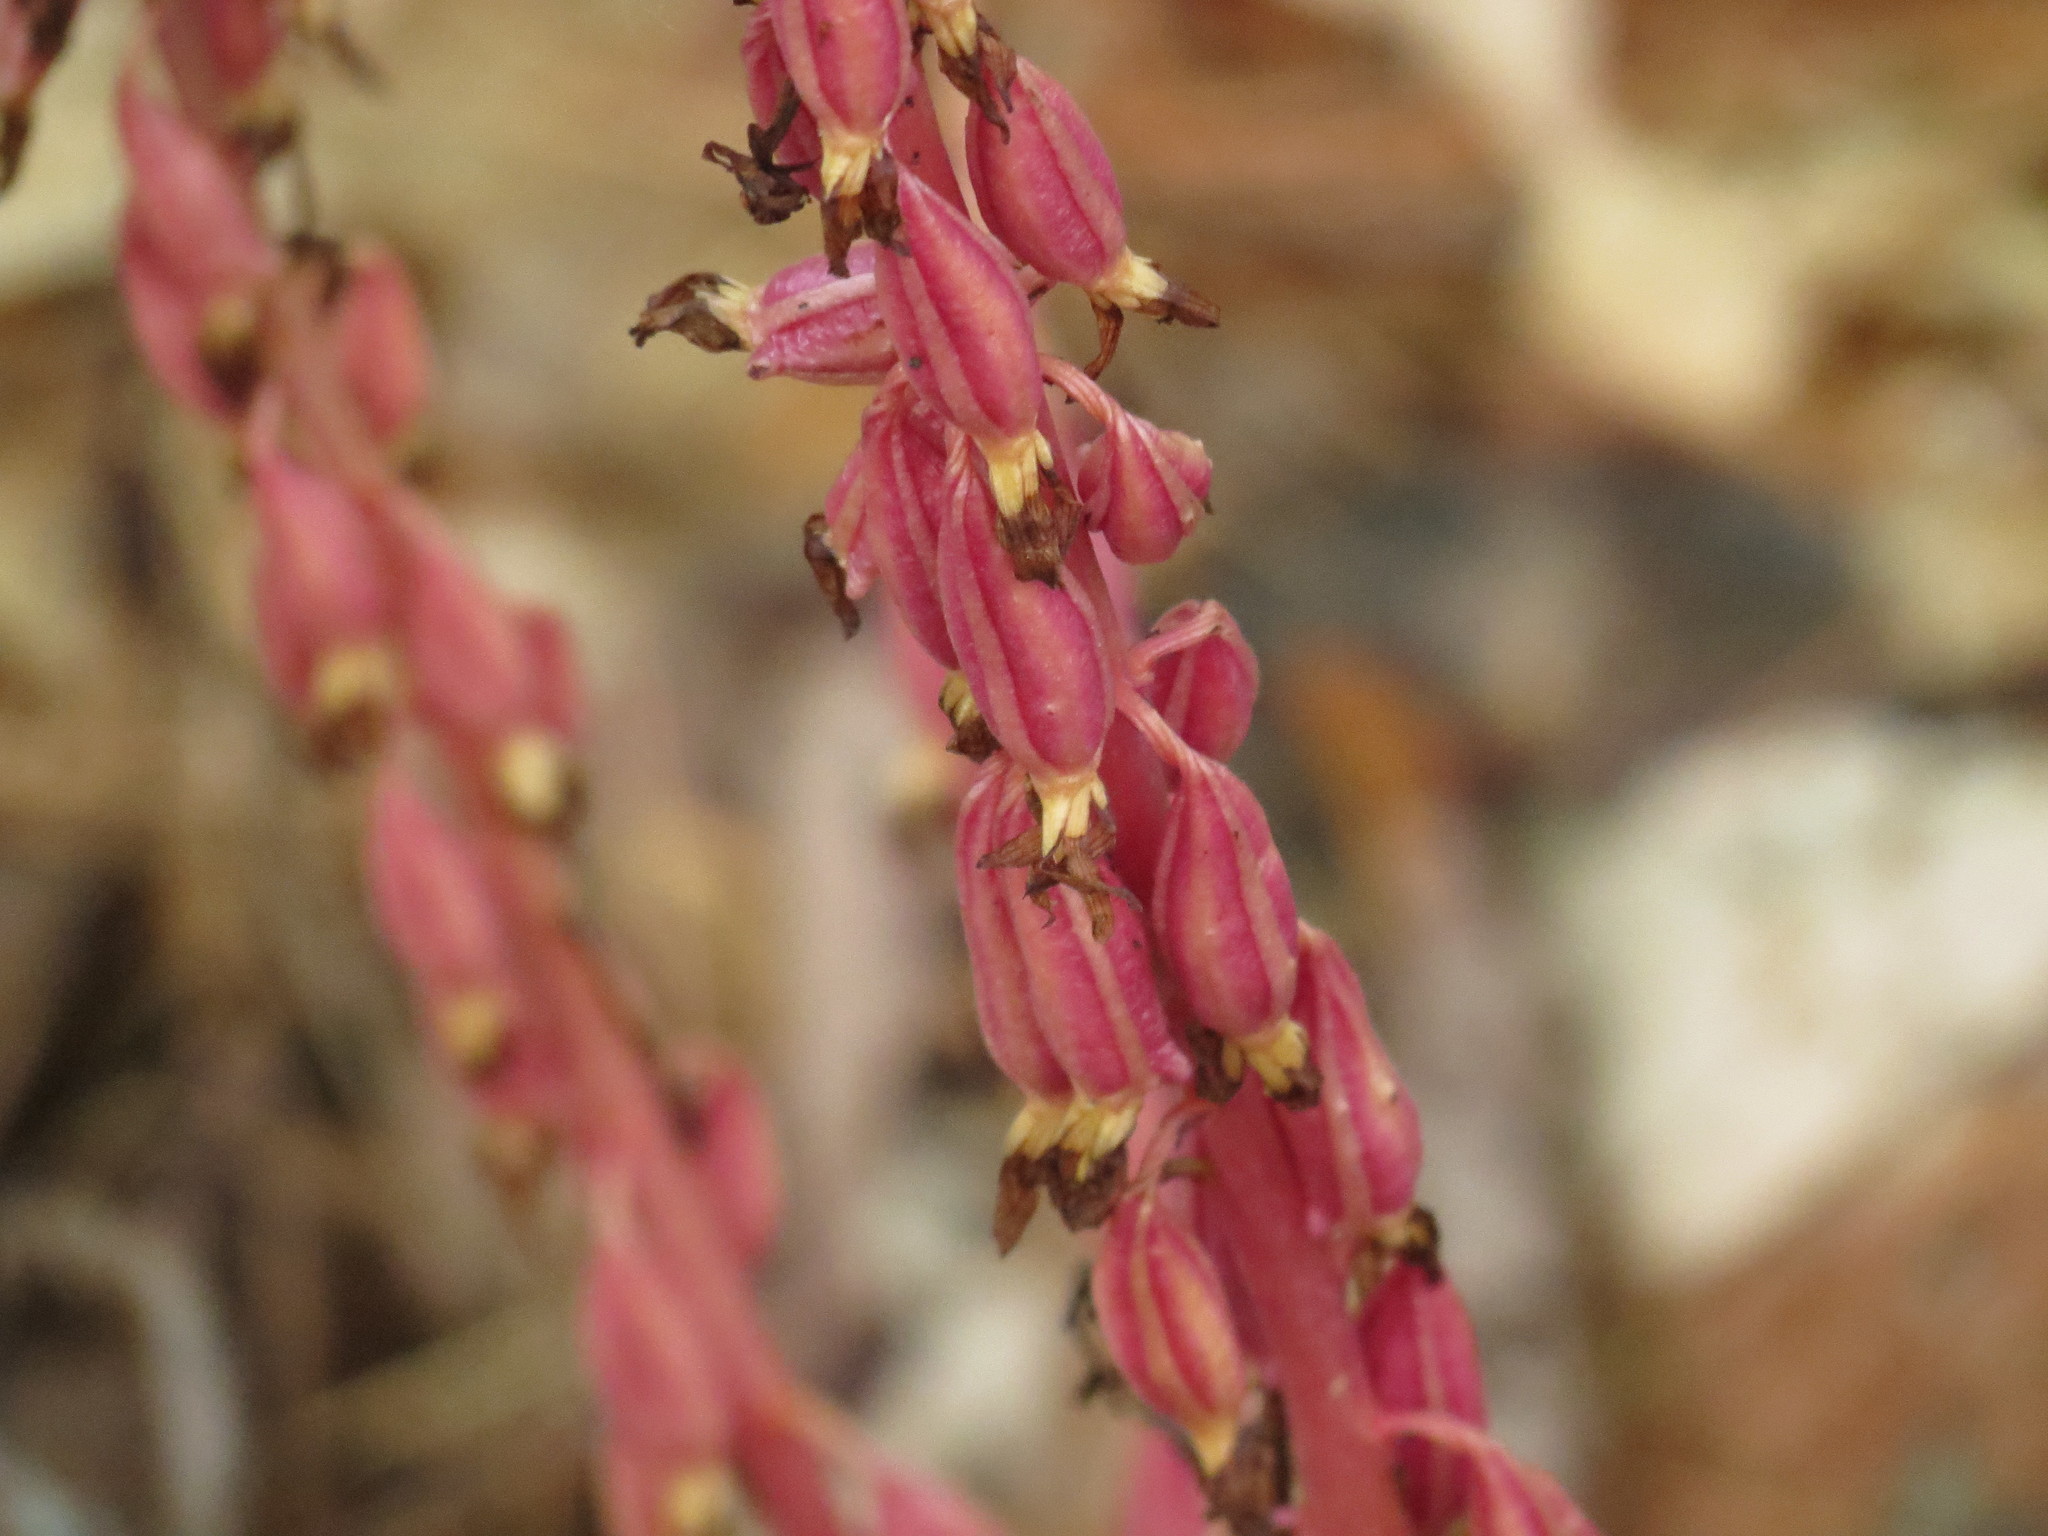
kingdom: Plantae
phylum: Tracheophyta
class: Liliopsida
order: Asparagales
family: Orchidaceae
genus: Corallorhiza
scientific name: Corallorhiza maculata
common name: Spotted coralroot
